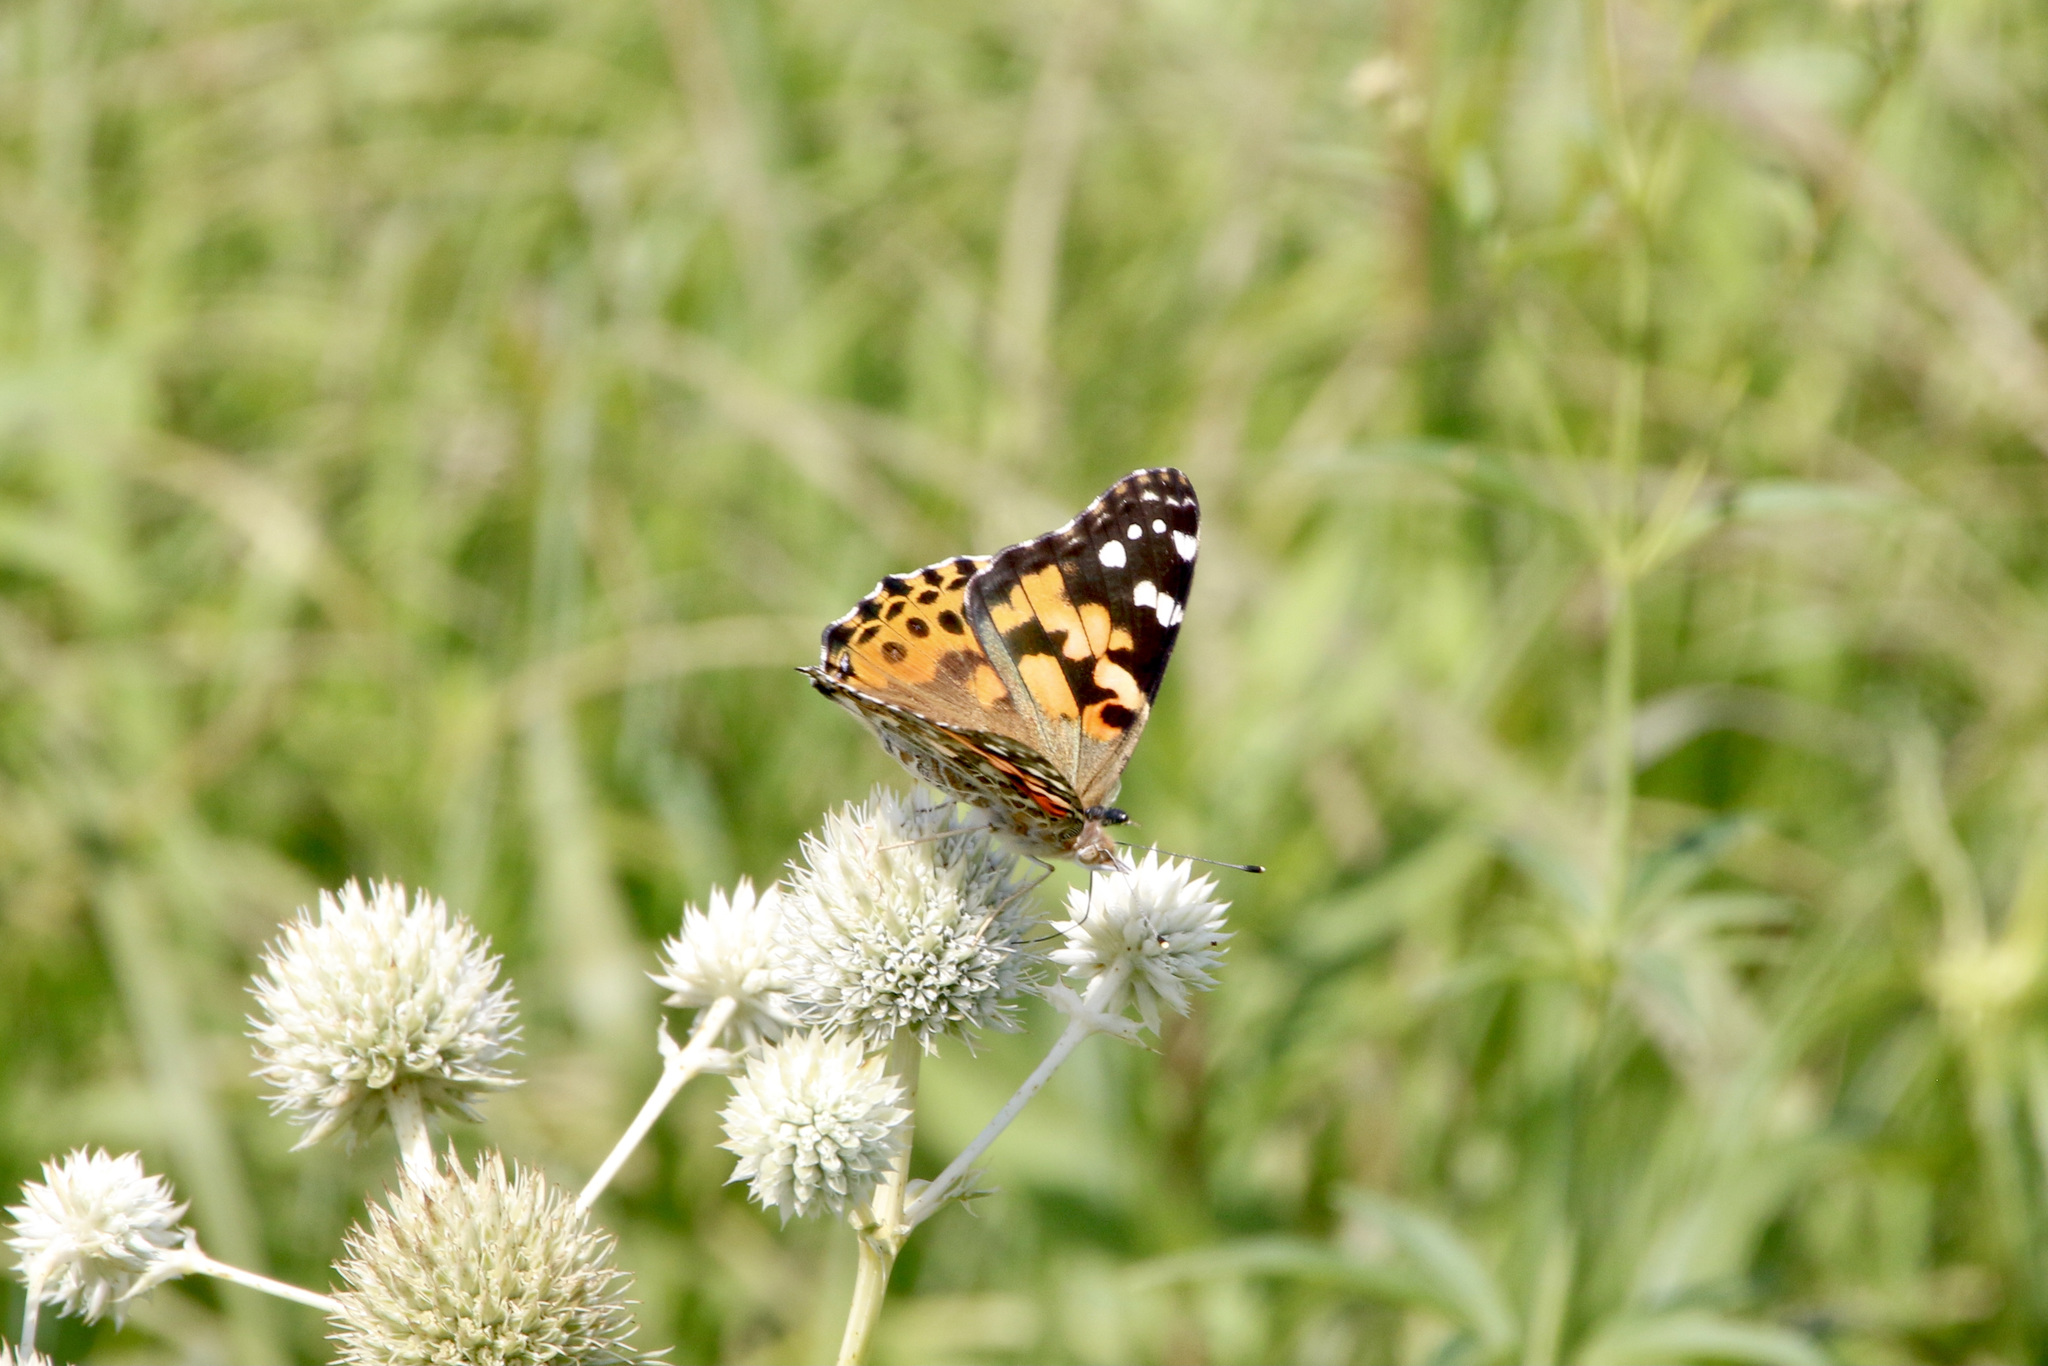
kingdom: Animalia
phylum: Arthropoda
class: Insecta
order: Lepidoptera
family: Nymphalidae
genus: Vanessa
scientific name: Vanessa cardui
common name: Painted lady
